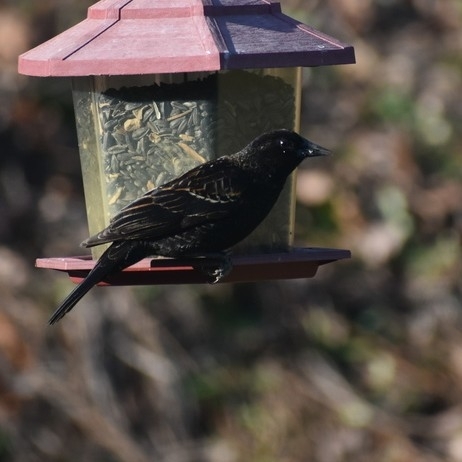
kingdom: Animalia
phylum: Chordata
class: Aves
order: Passeriformes
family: Icteridae
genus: Agelaius
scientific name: Agelaius phoeniceus
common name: Red-winged blackbird
